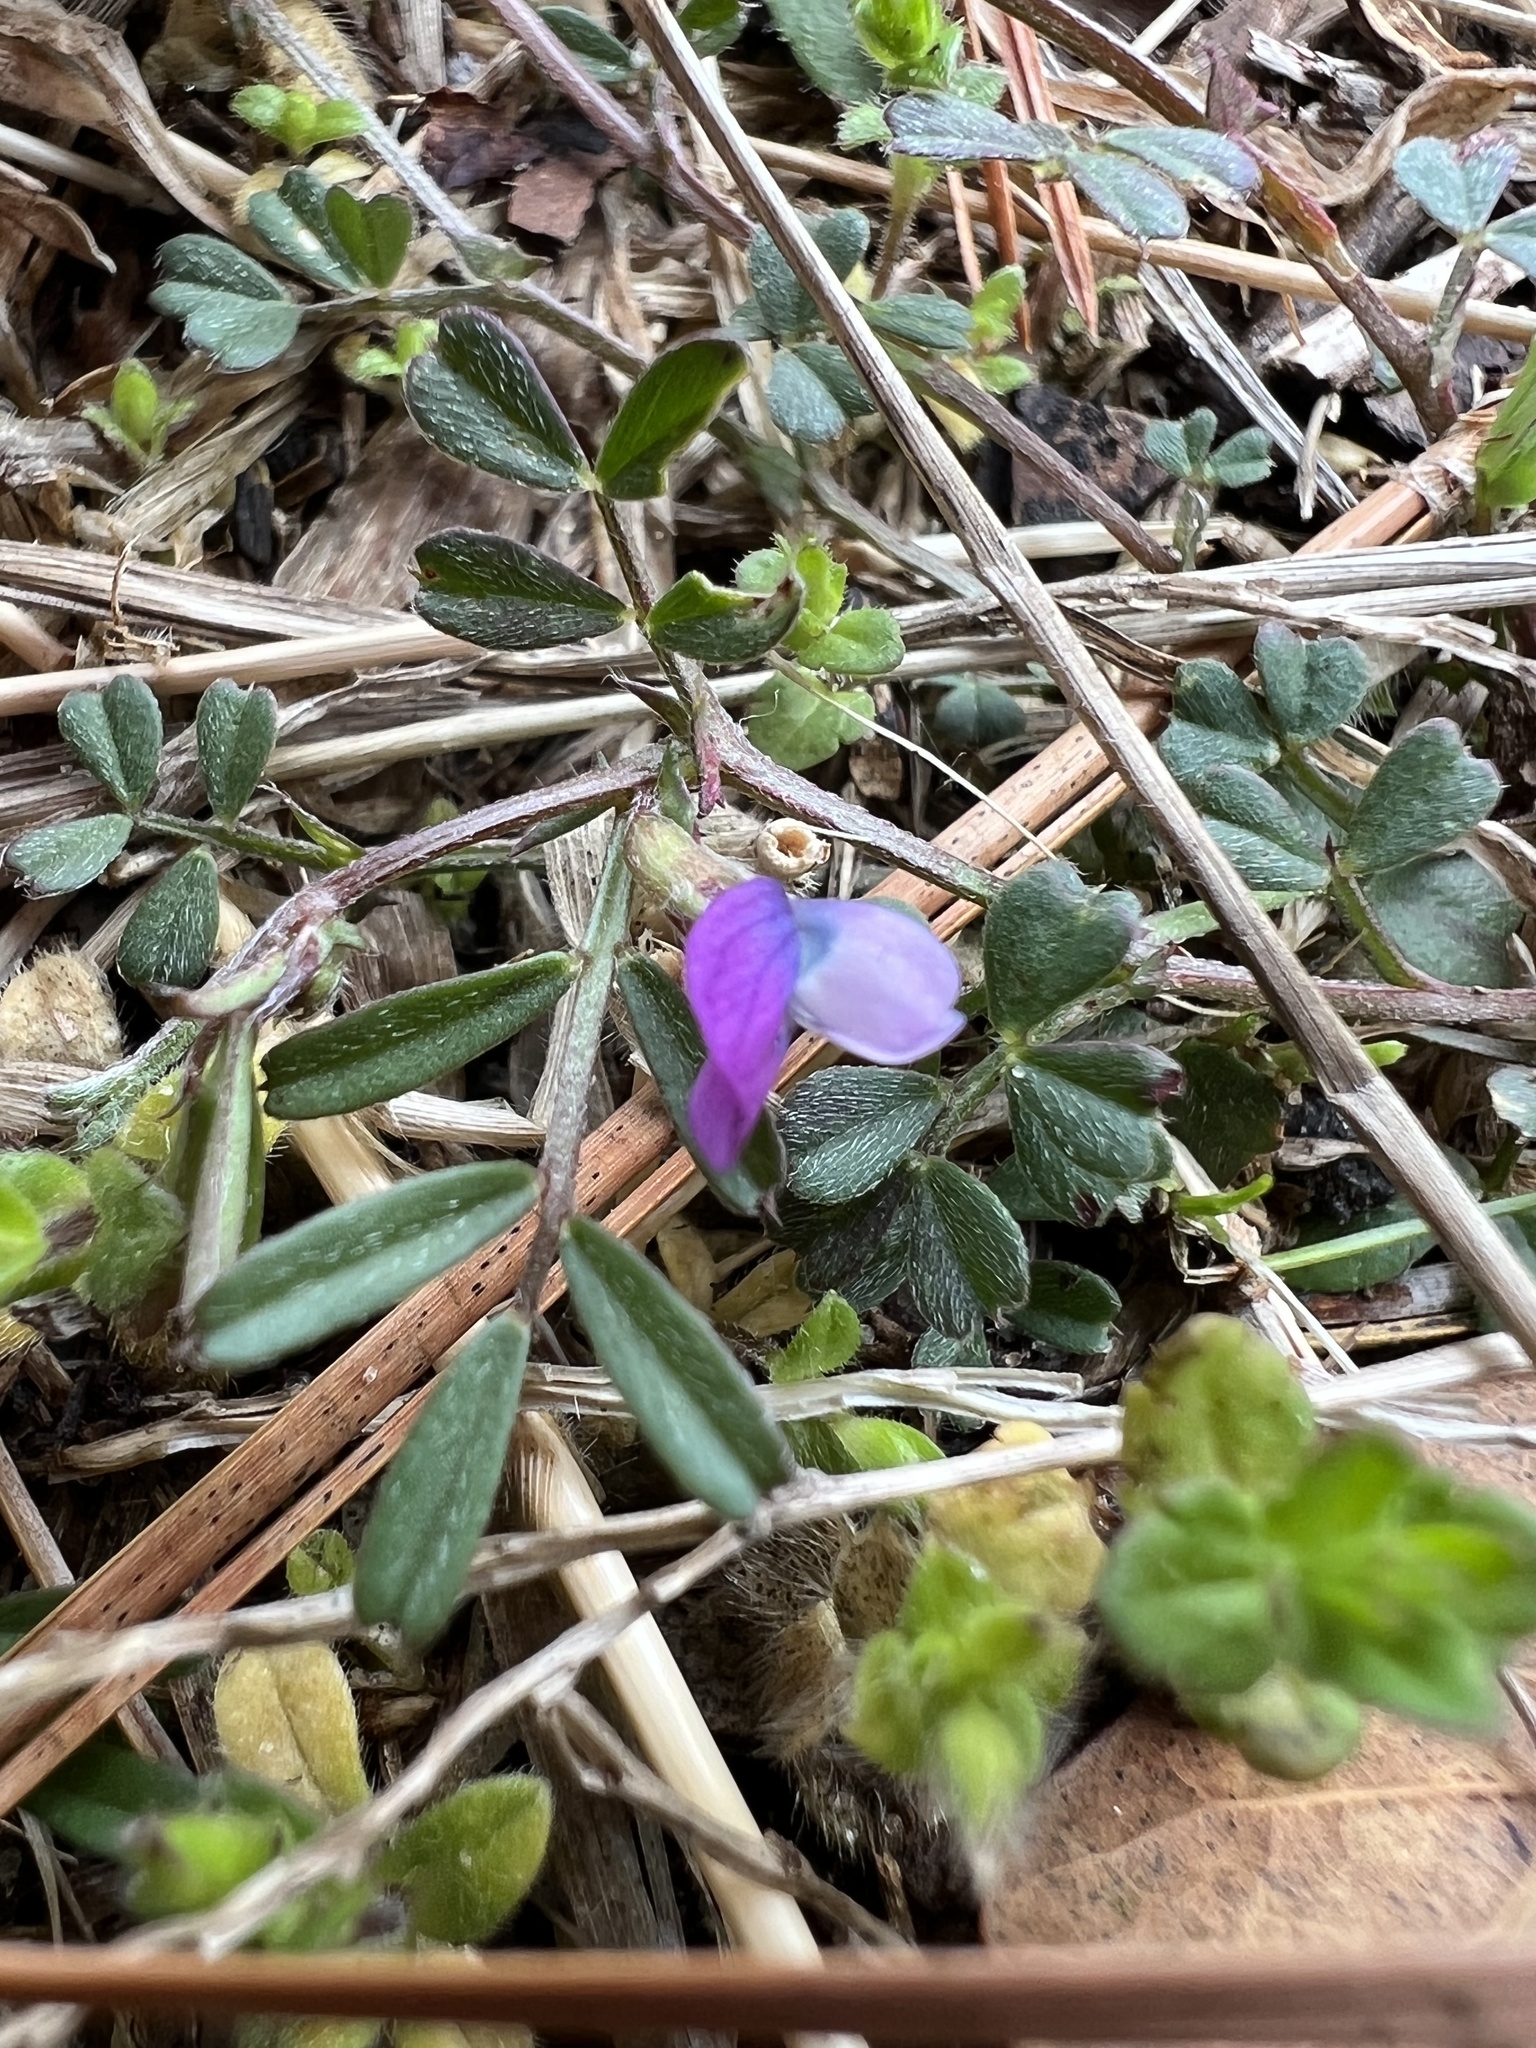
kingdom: Plantae
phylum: Tracheophyta
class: Magnoliopsida
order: Fabales
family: Fabaceae
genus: Vicia
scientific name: Vicia lathyroides
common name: Spring vetch
